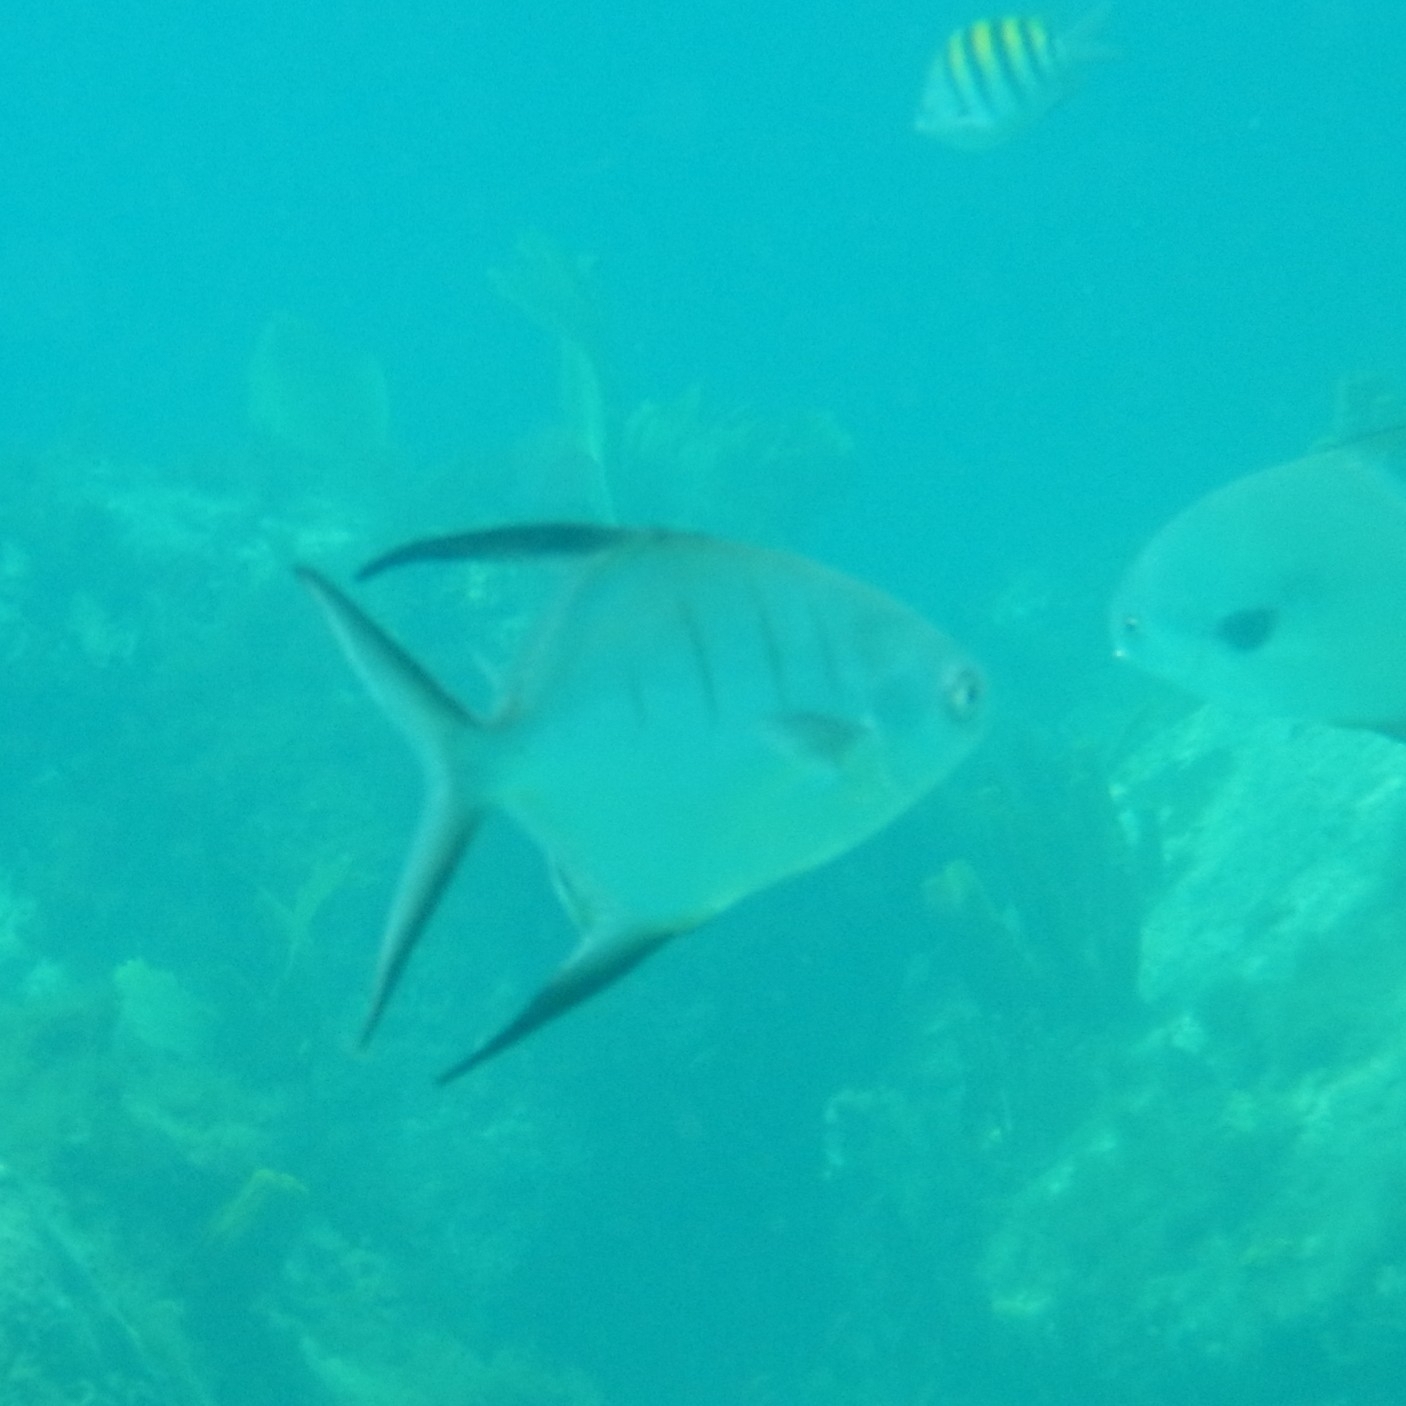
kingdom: Animalia
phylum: Chordata
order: Perciformes
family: Carangidae
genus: Trachinotus
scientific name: Trachinotus goodei
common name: Palometa
